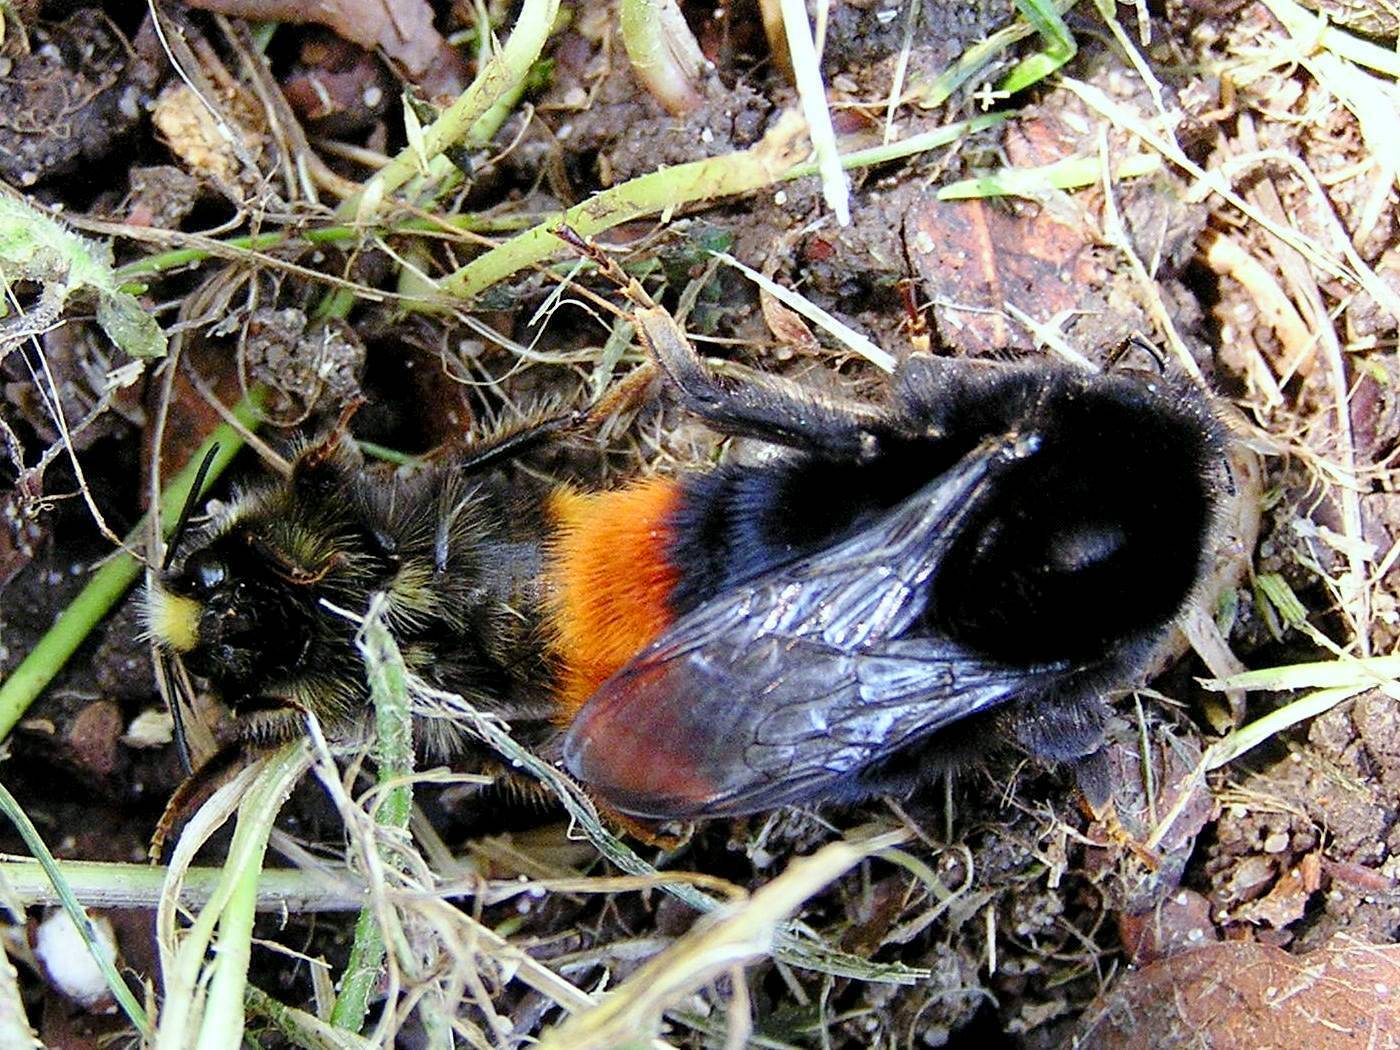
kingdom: Animalia
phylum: Arthropoda
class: Insecta
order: Hymenoptera
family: Apidae
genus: Bombus
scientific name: Bombus lapidarius
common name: Large red-tailed humble-bee
